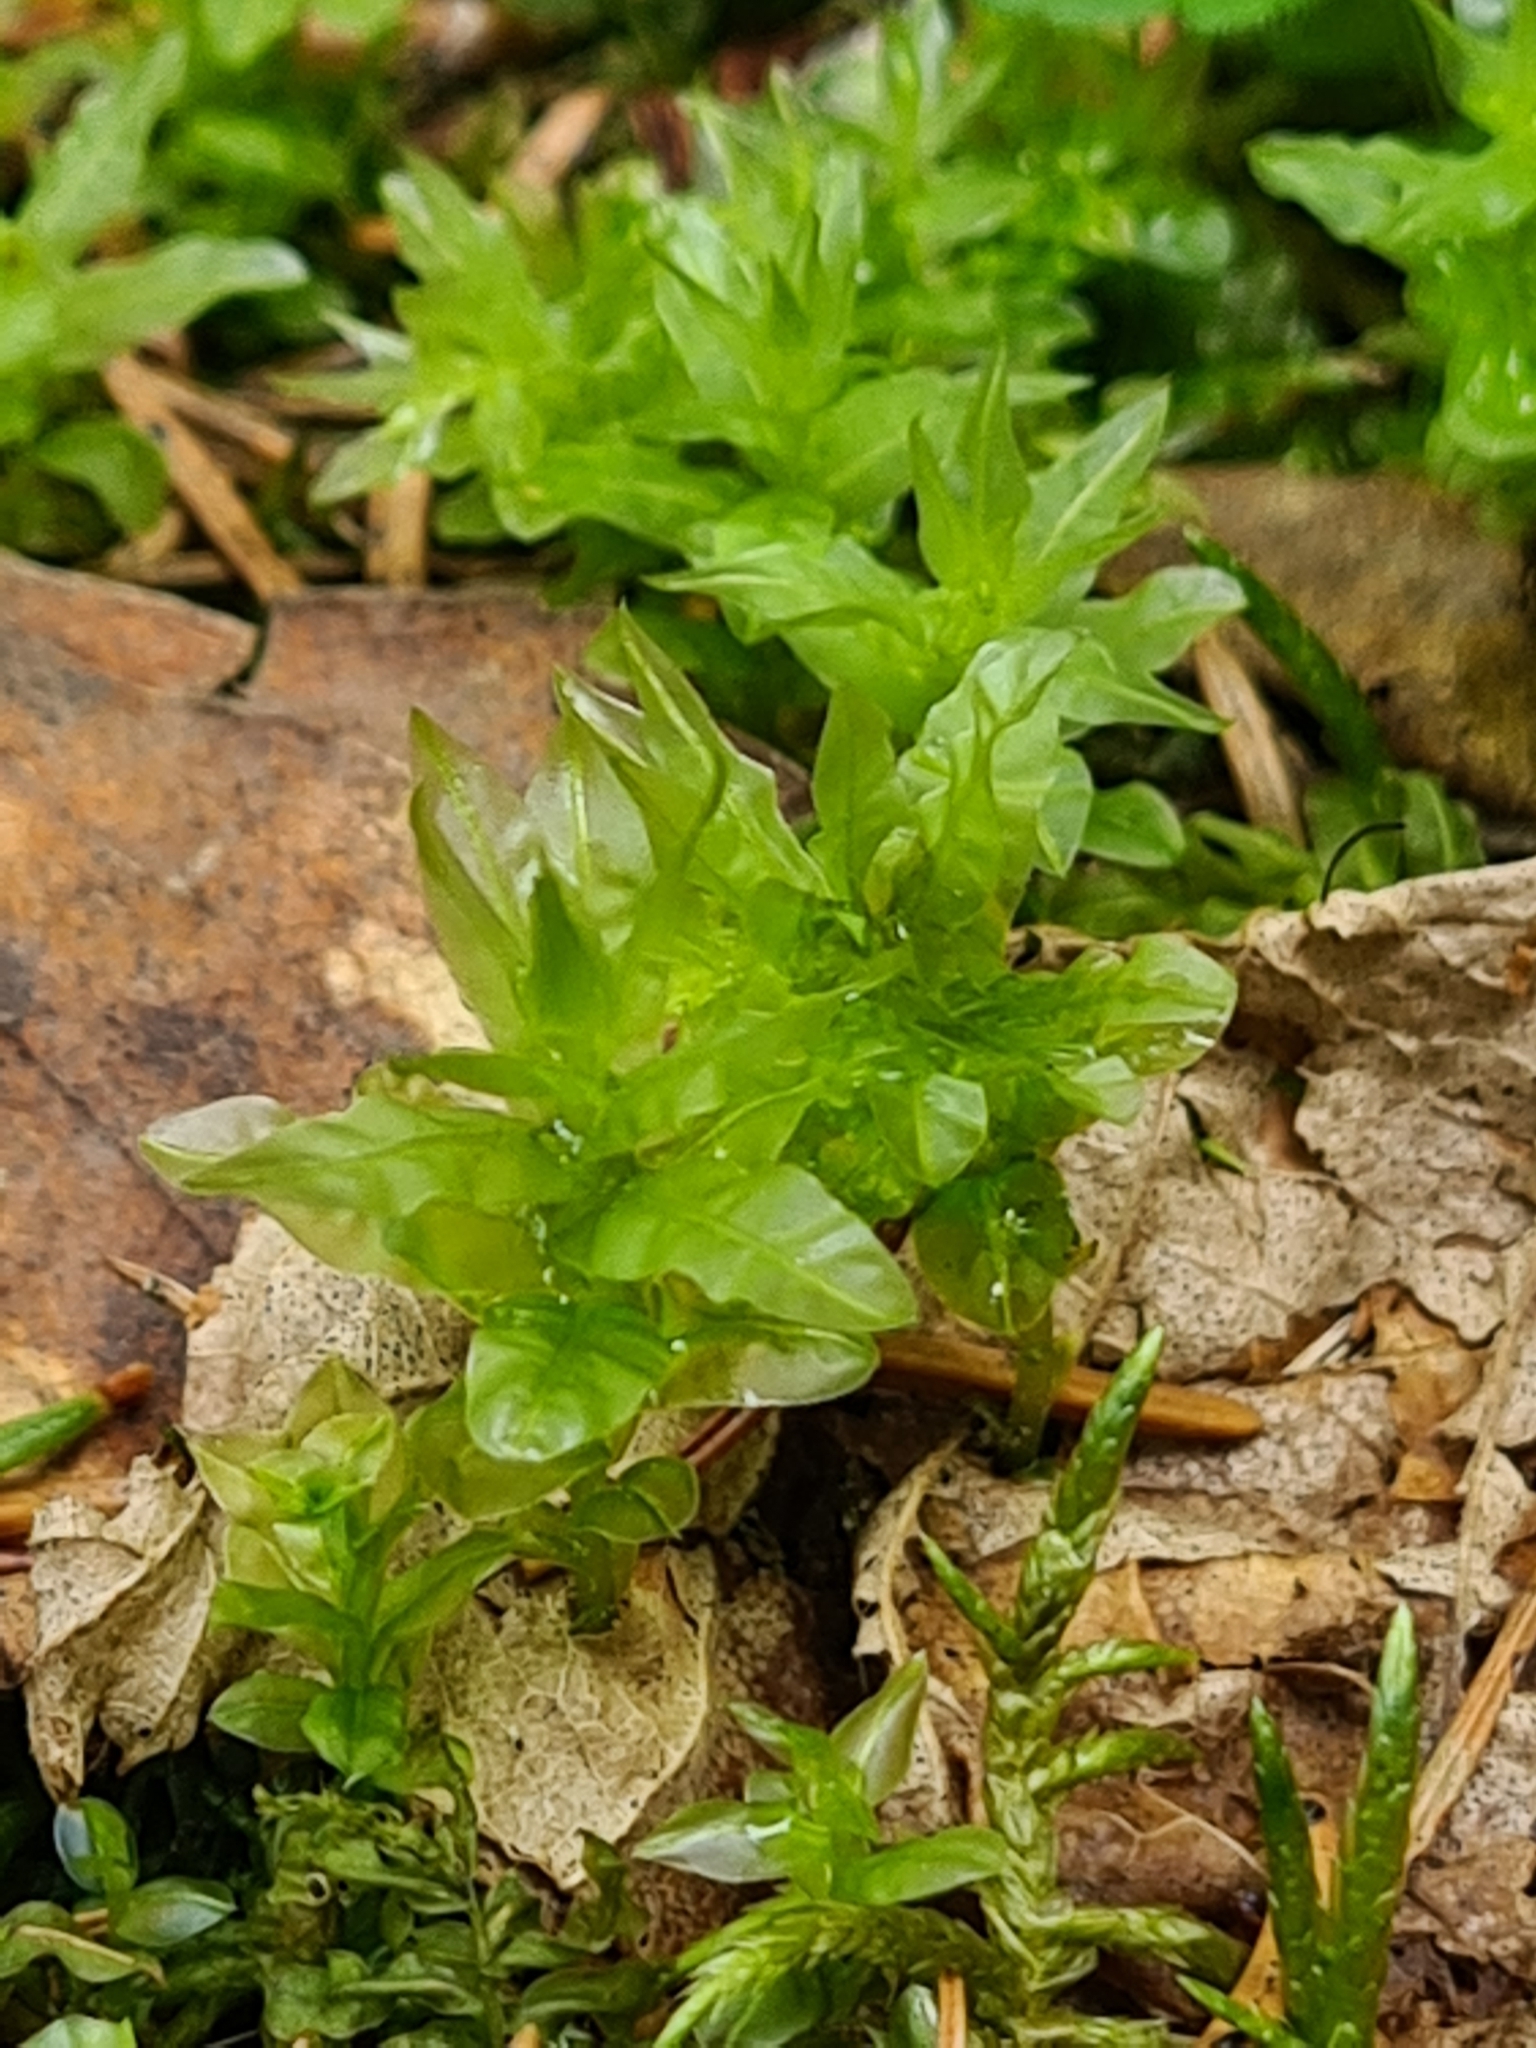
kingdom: Plantae
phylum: Bryophyta
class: Bryopsida
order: Bryales
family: Mniaceae
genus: Plagiomnium
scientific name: Plagiomnium undulatum
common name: Hart's-tongue thyme-moss
